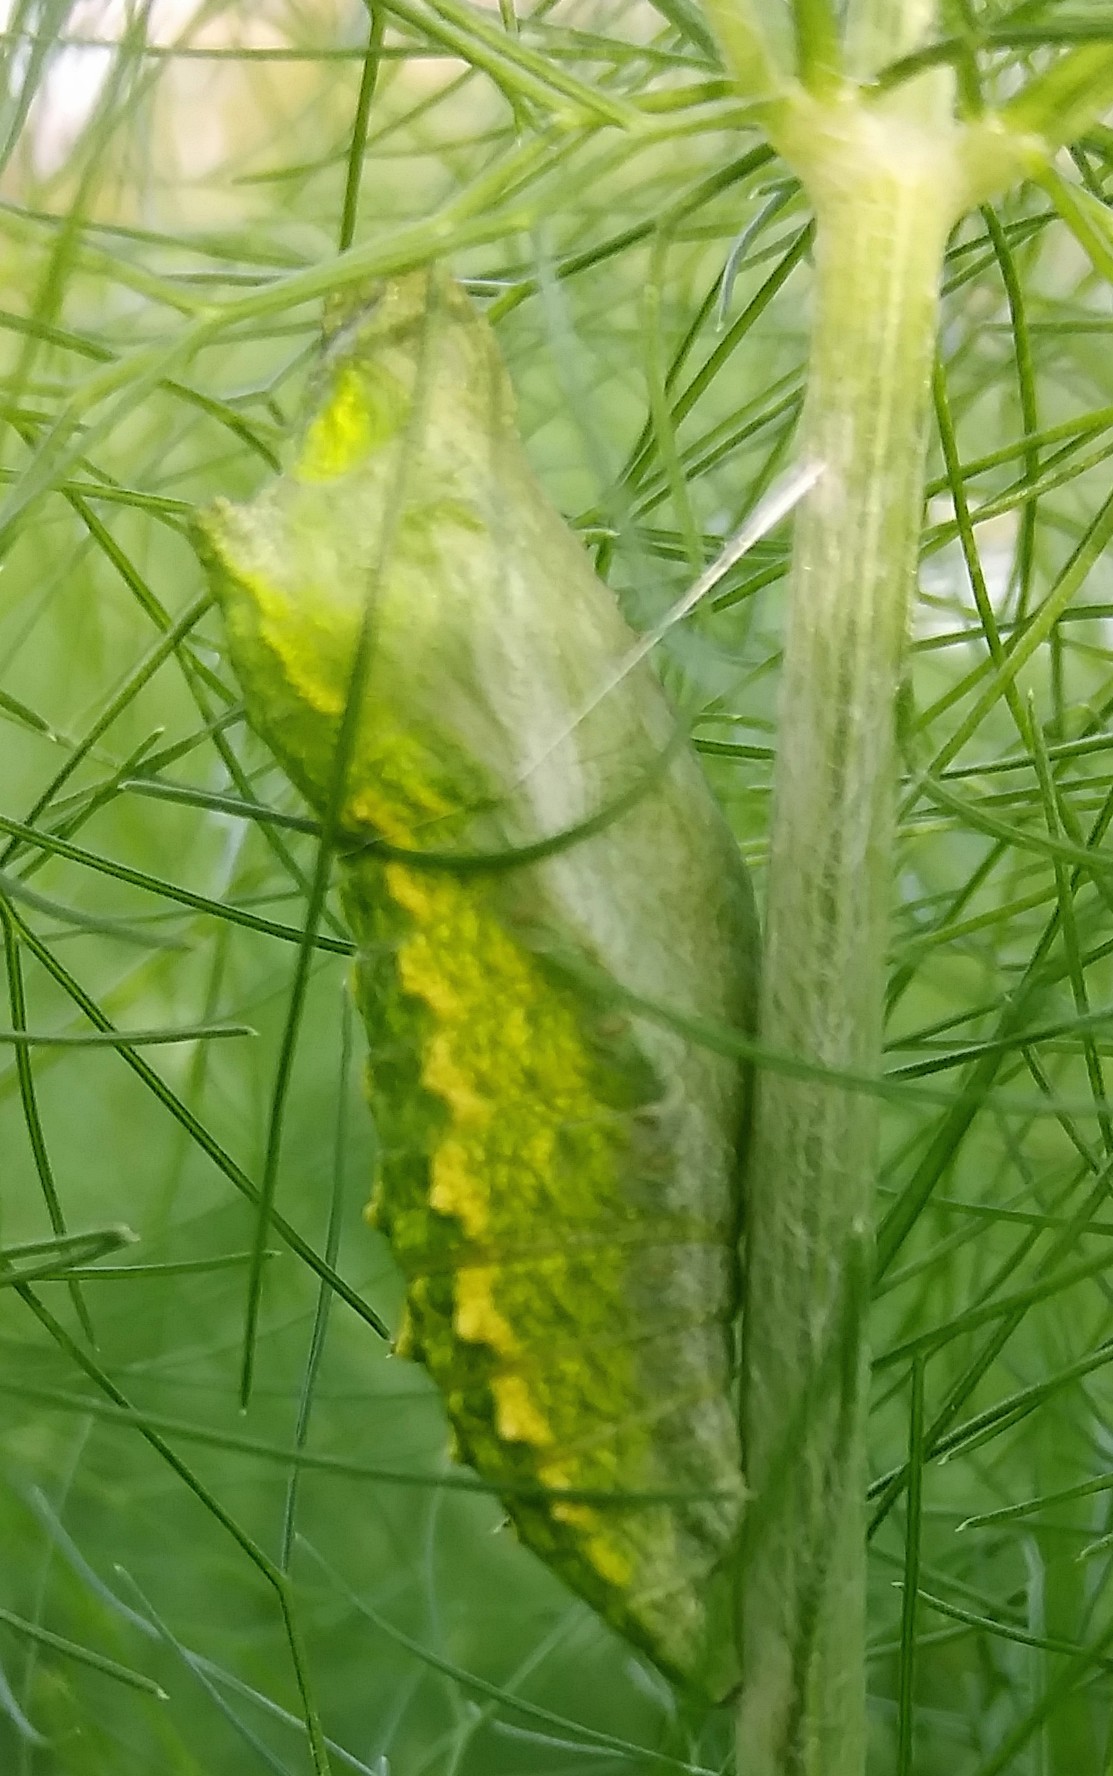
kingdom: Animalia
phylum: Arthropoda
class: Insecta
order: Lepidoptera
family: Papilionidae
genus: Papilio
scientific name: Papilio polyxenes
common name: Black swallowtail
